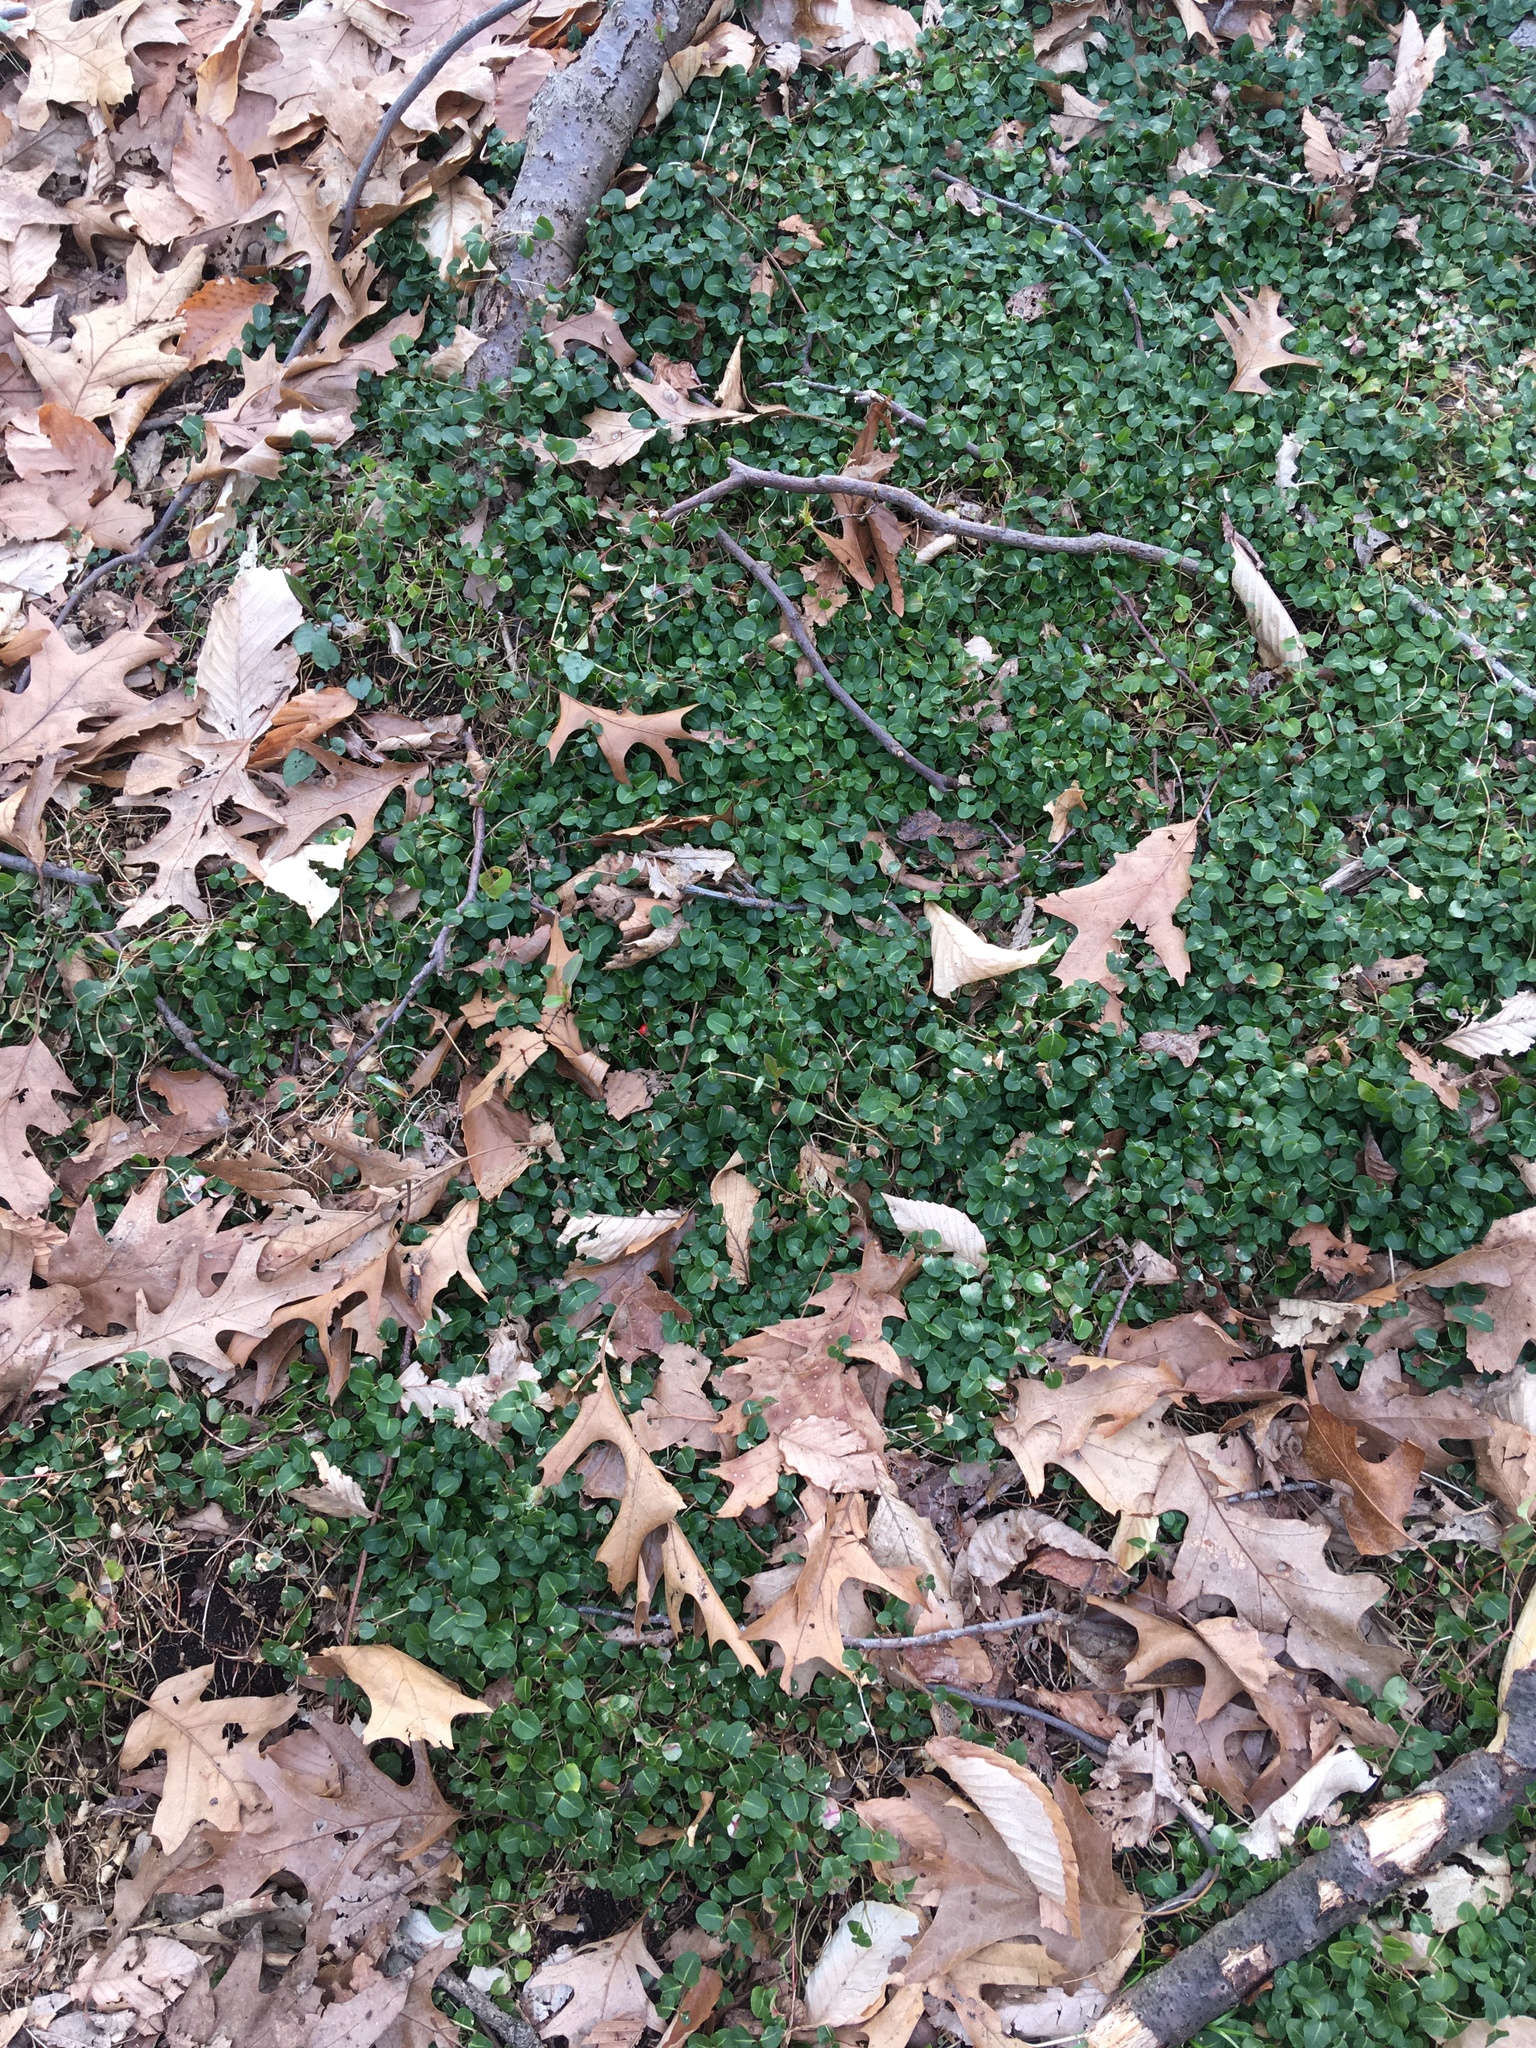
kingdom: Plantae
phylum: Tracheophyta
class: Magnoliopsida
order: Gentianales
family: Rubiaceae
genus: Mitchella
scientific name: Mitchella repens
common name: Partridge-berry
